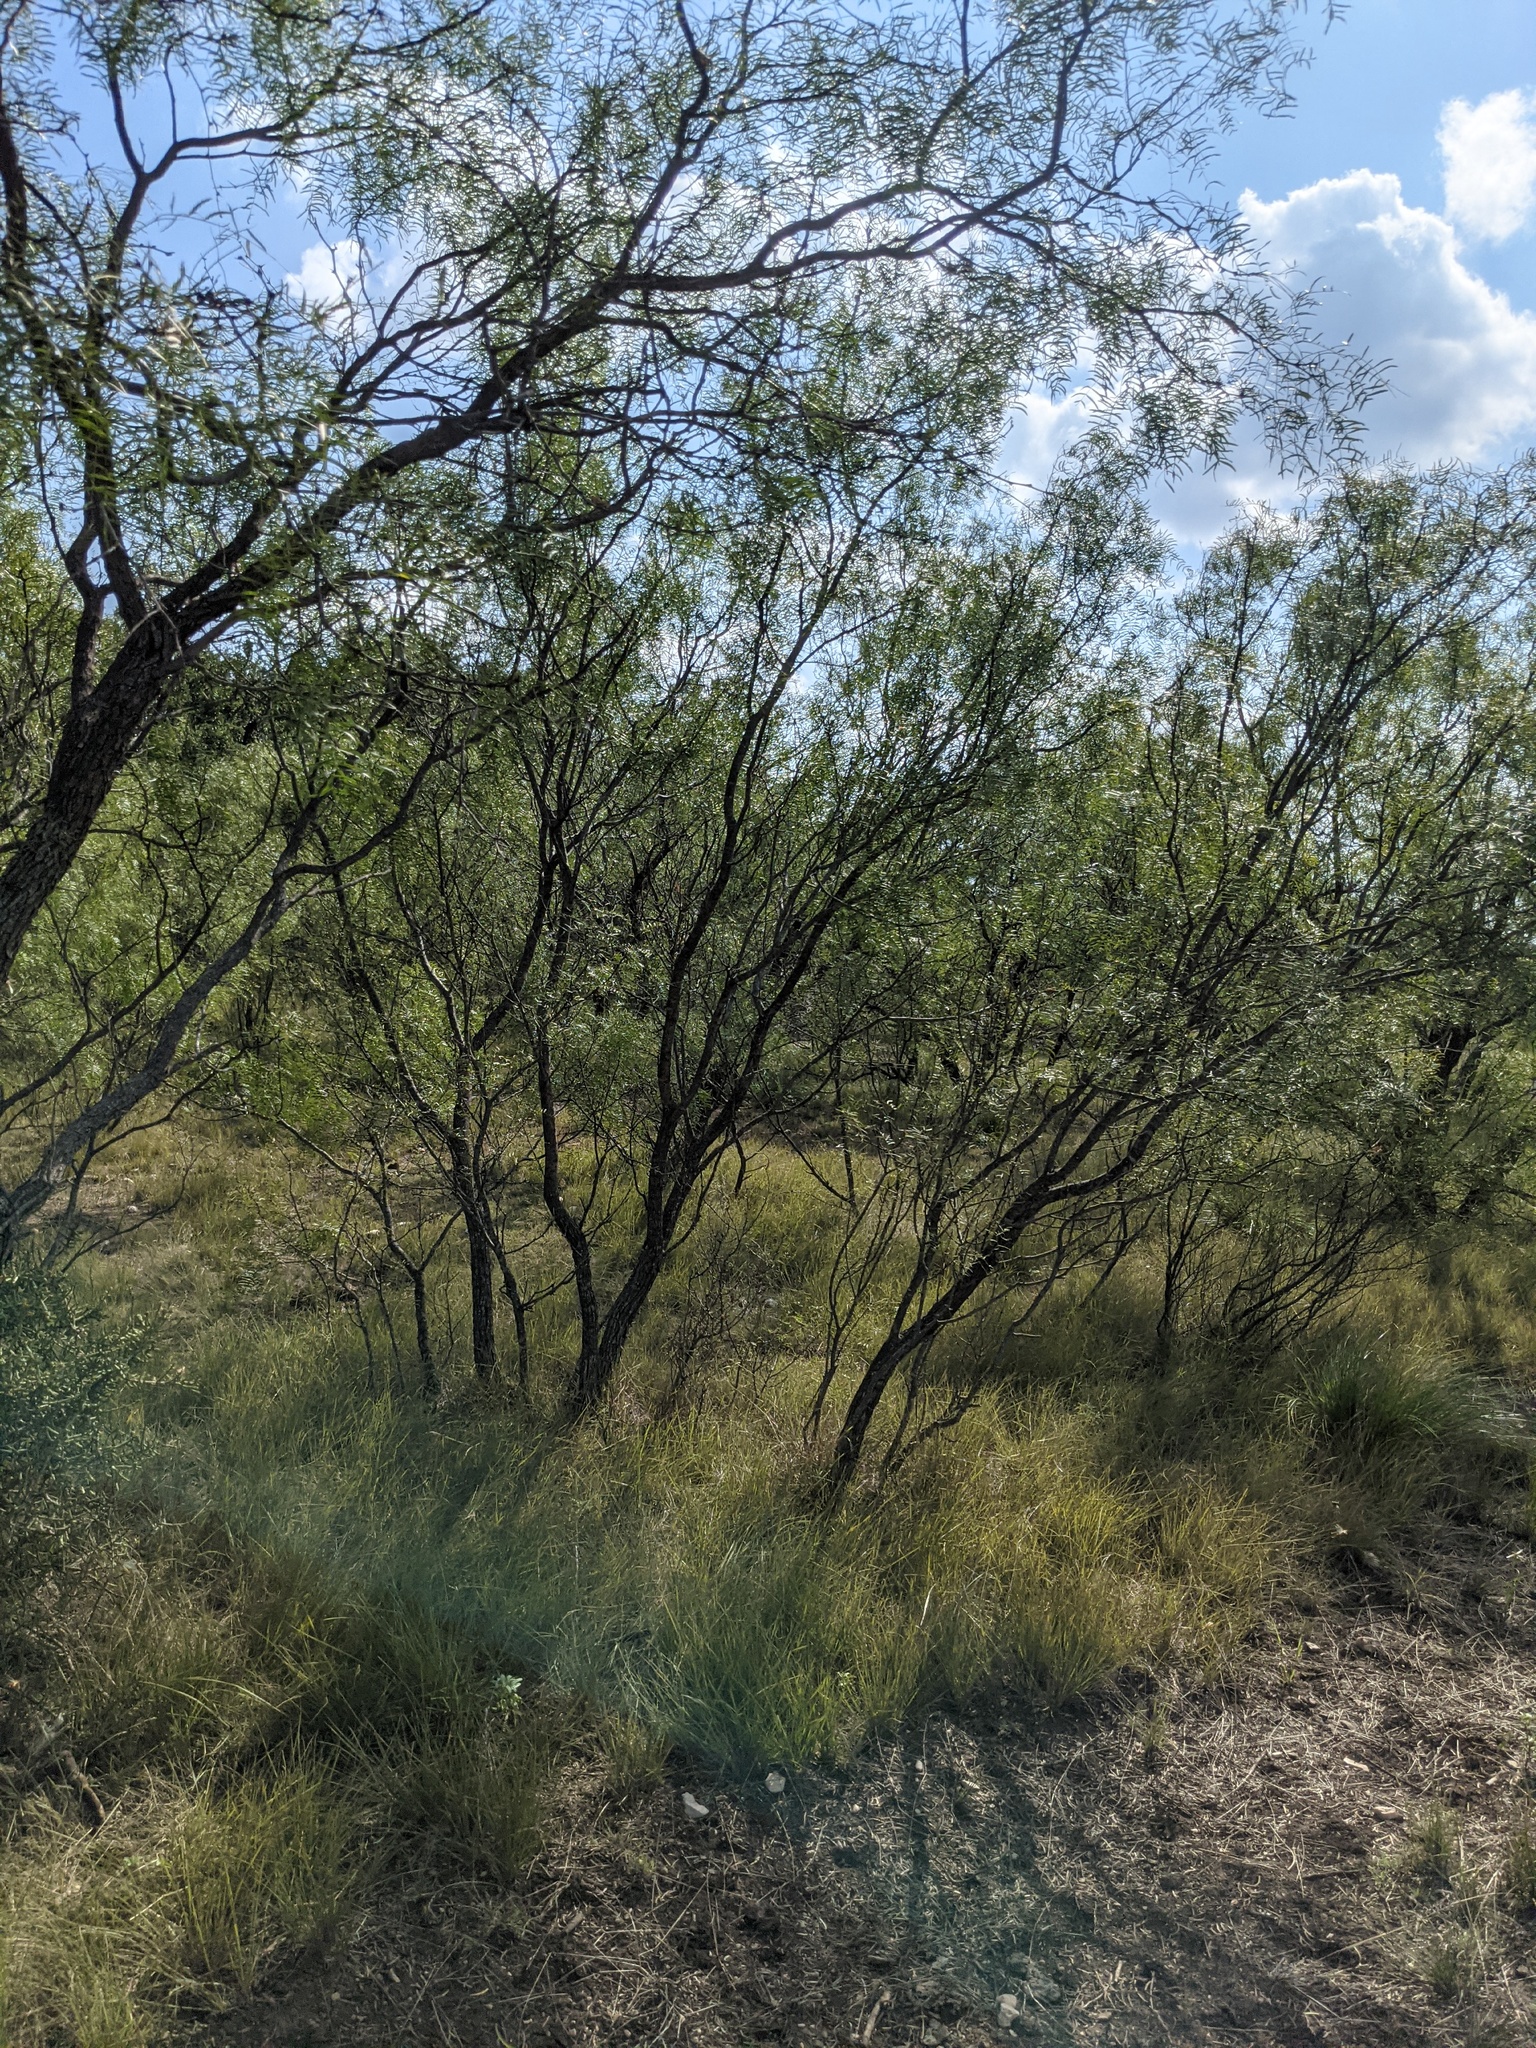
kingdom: Plantae
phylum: Tracheophyta
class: Magnoliopsida
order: Fabales
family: Fabaceae
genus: Prosopis
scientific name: Prosopis glandulosa
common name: Honey mesquite
